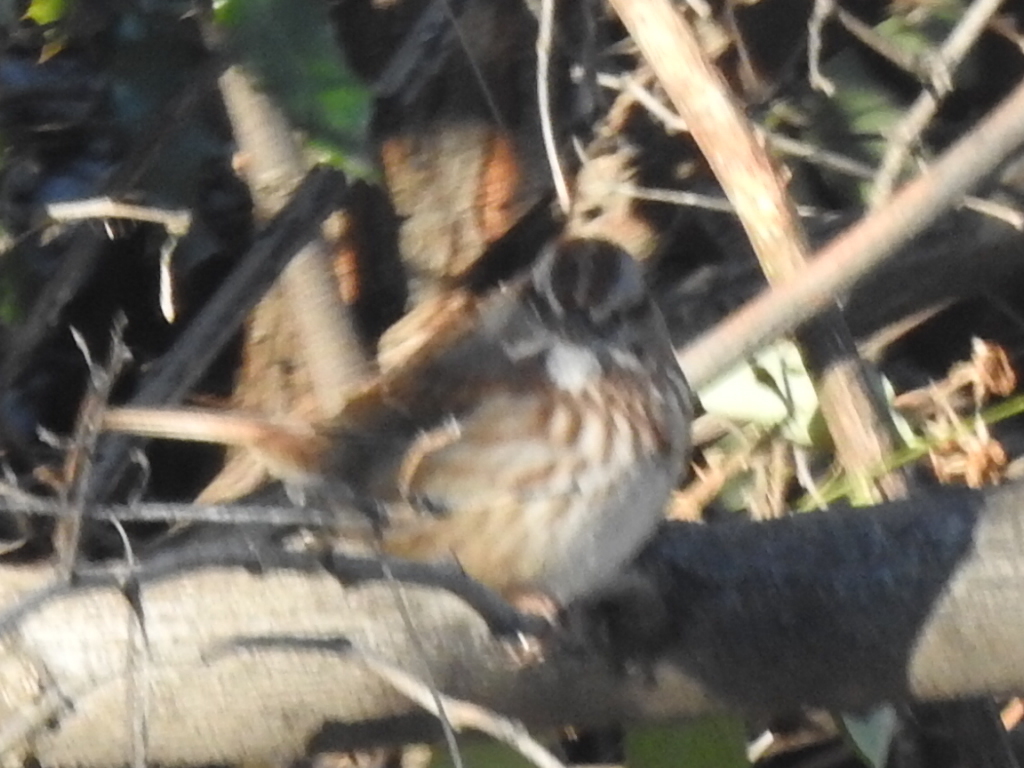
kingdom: Animalia
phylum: Chordata
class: Aves
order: Passeriformes
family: Passerellidae
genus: Melospiza
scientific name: Melospiza melodia
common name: Song sparrow
